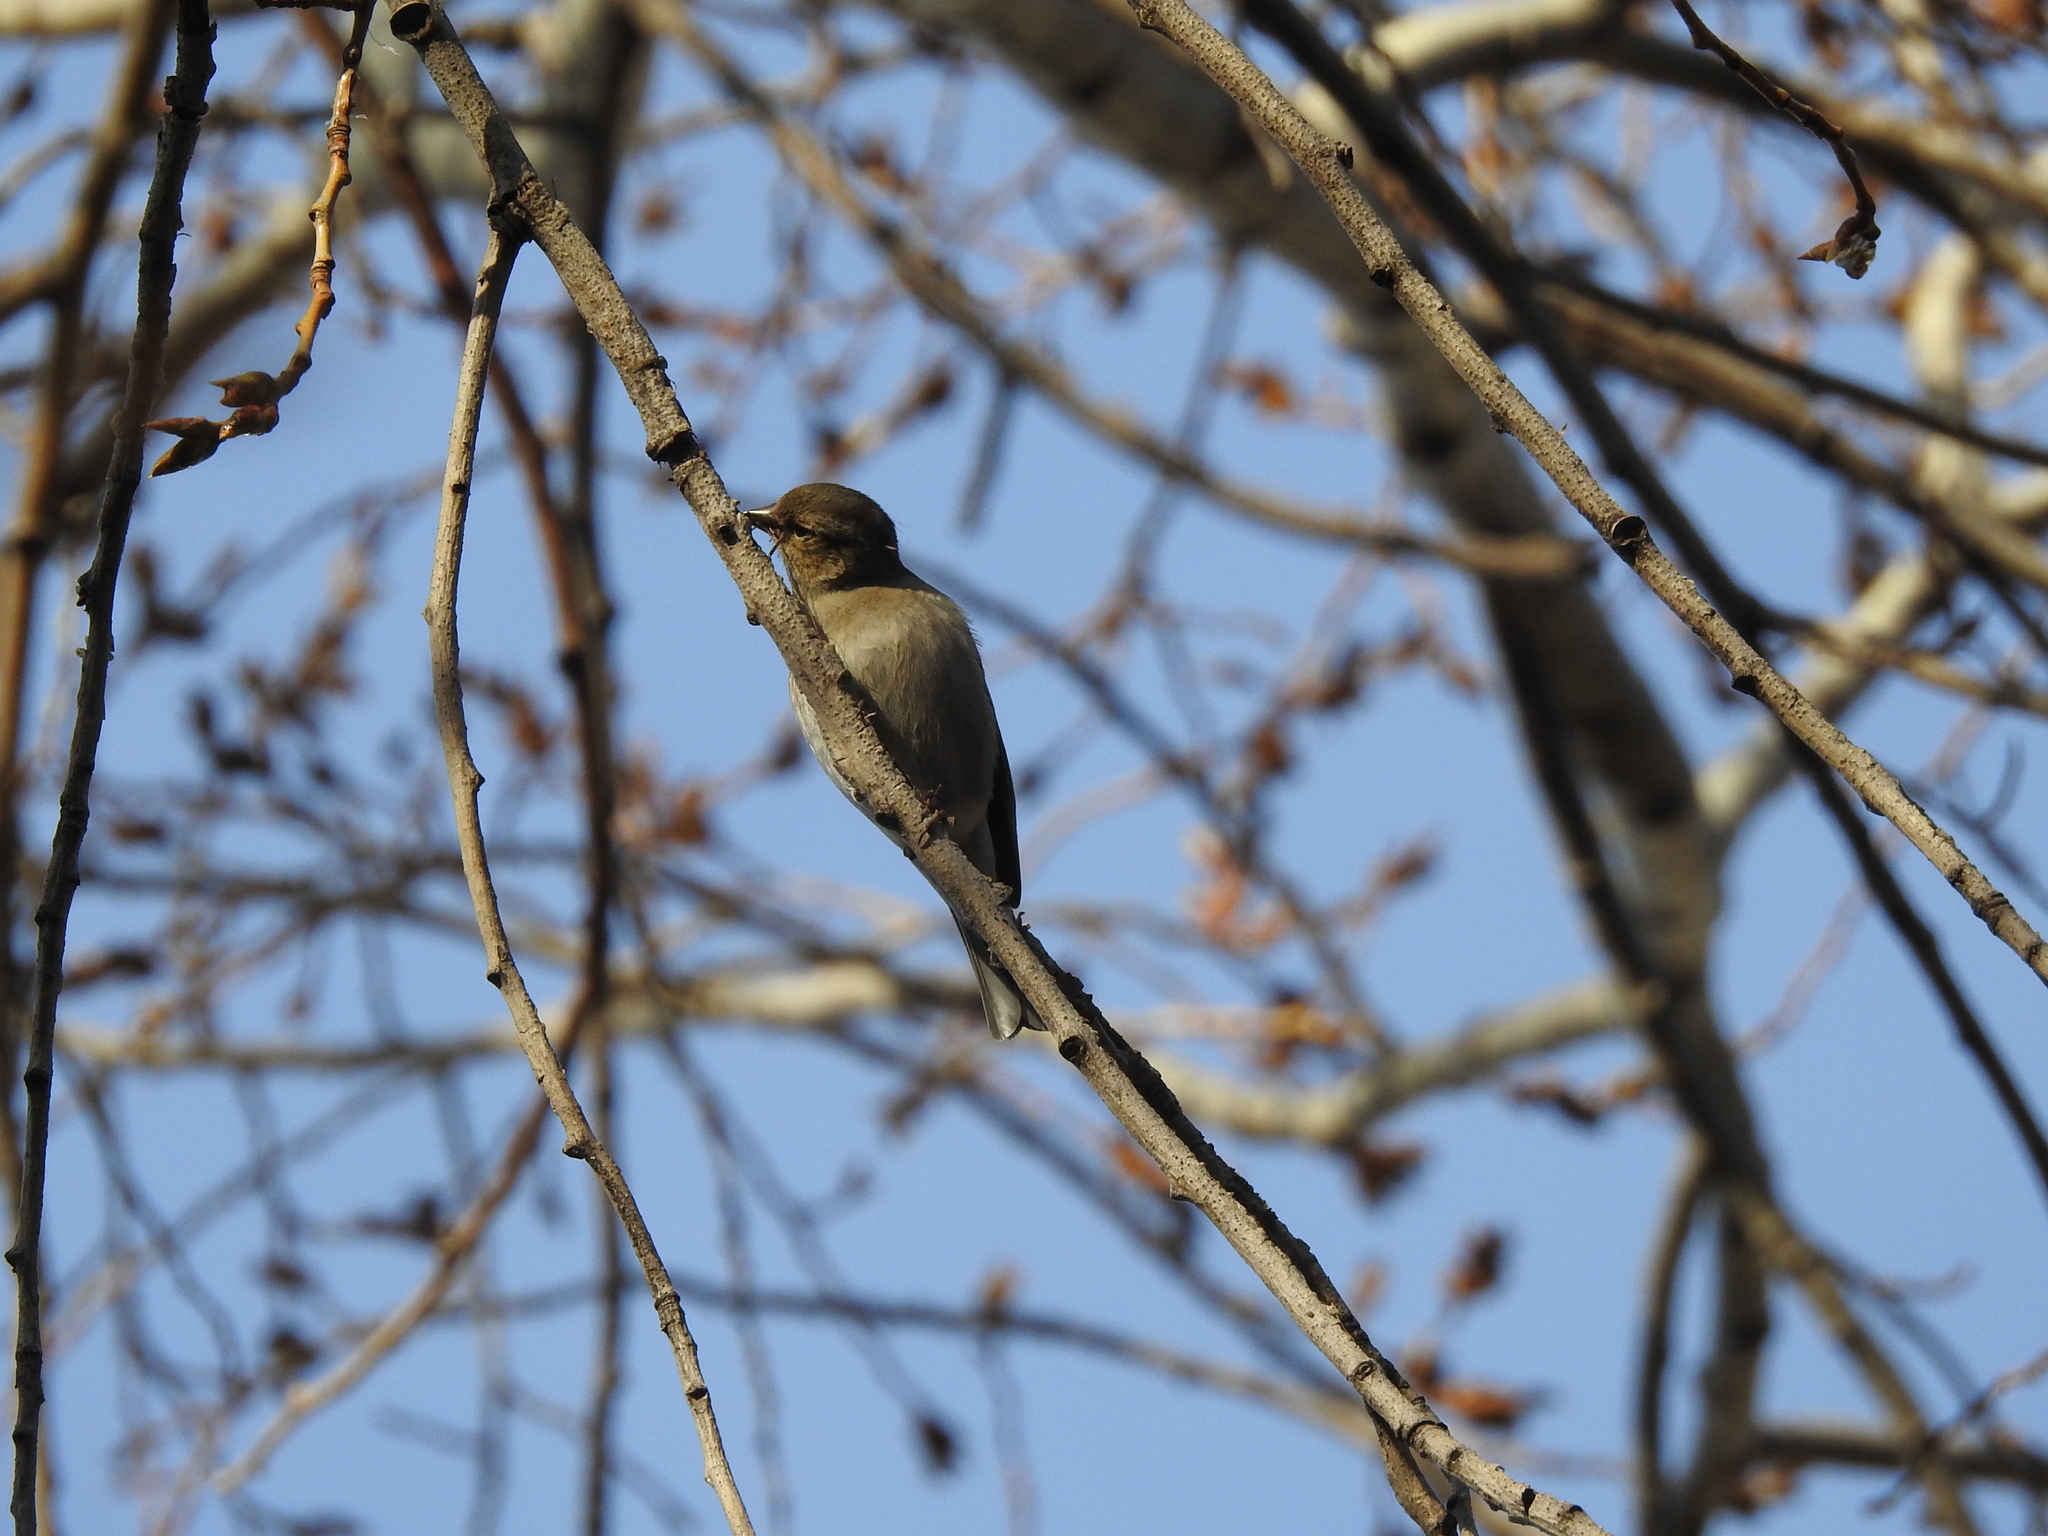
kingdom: Animalia
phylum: Chordata
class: Aves
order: Passeriformes
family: Fringillidae
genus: Fringilla
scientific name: Fringilla coelebs
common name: Common chaffinch
